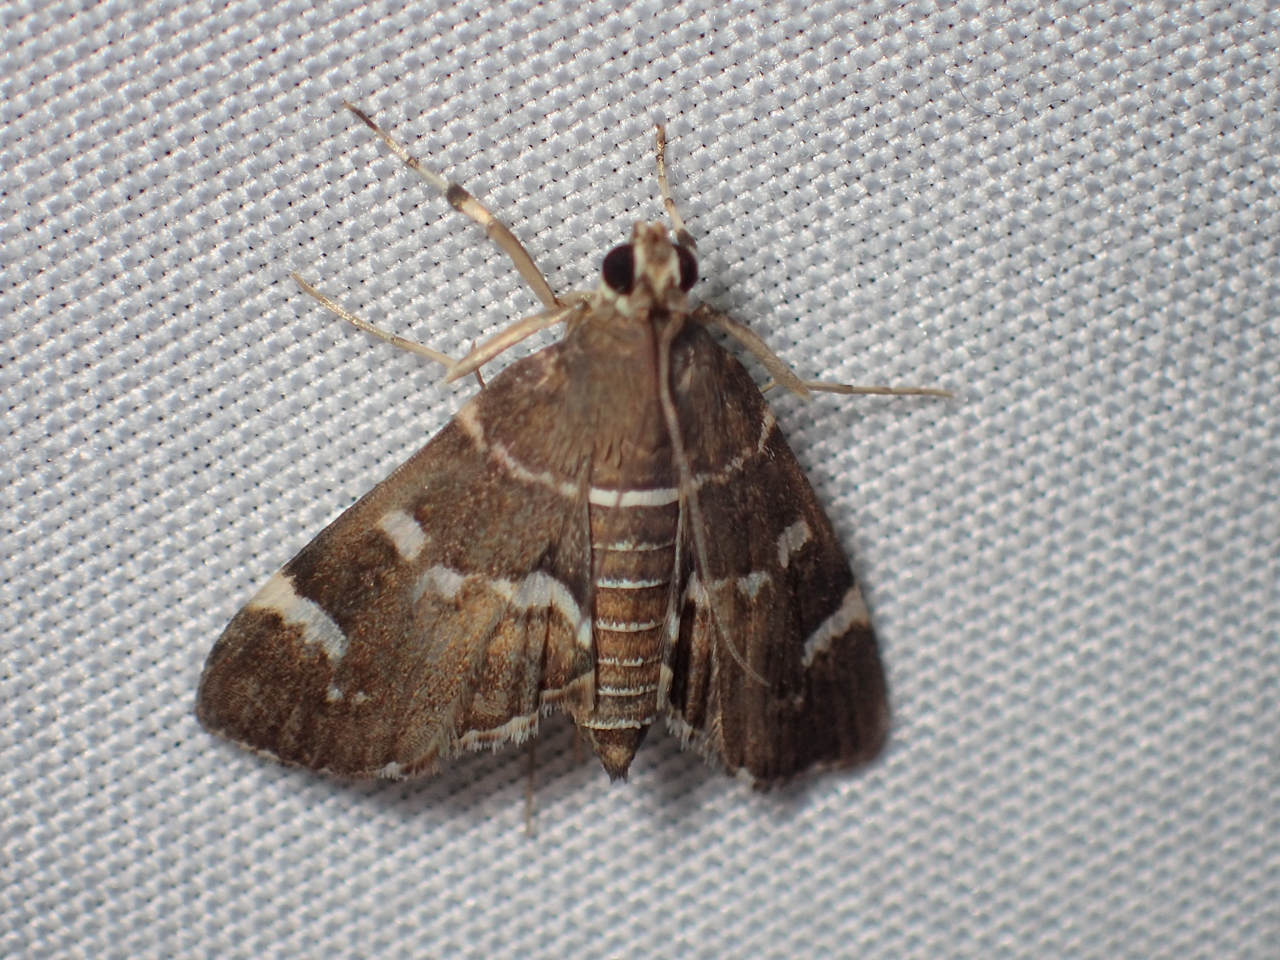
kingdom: Animalia
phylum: Arthropoda
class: Insecta
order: Lepidoptera
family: Crambidae
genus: Hymenia
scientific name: Hymenia perspectalis
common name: Spotted beet webworm
